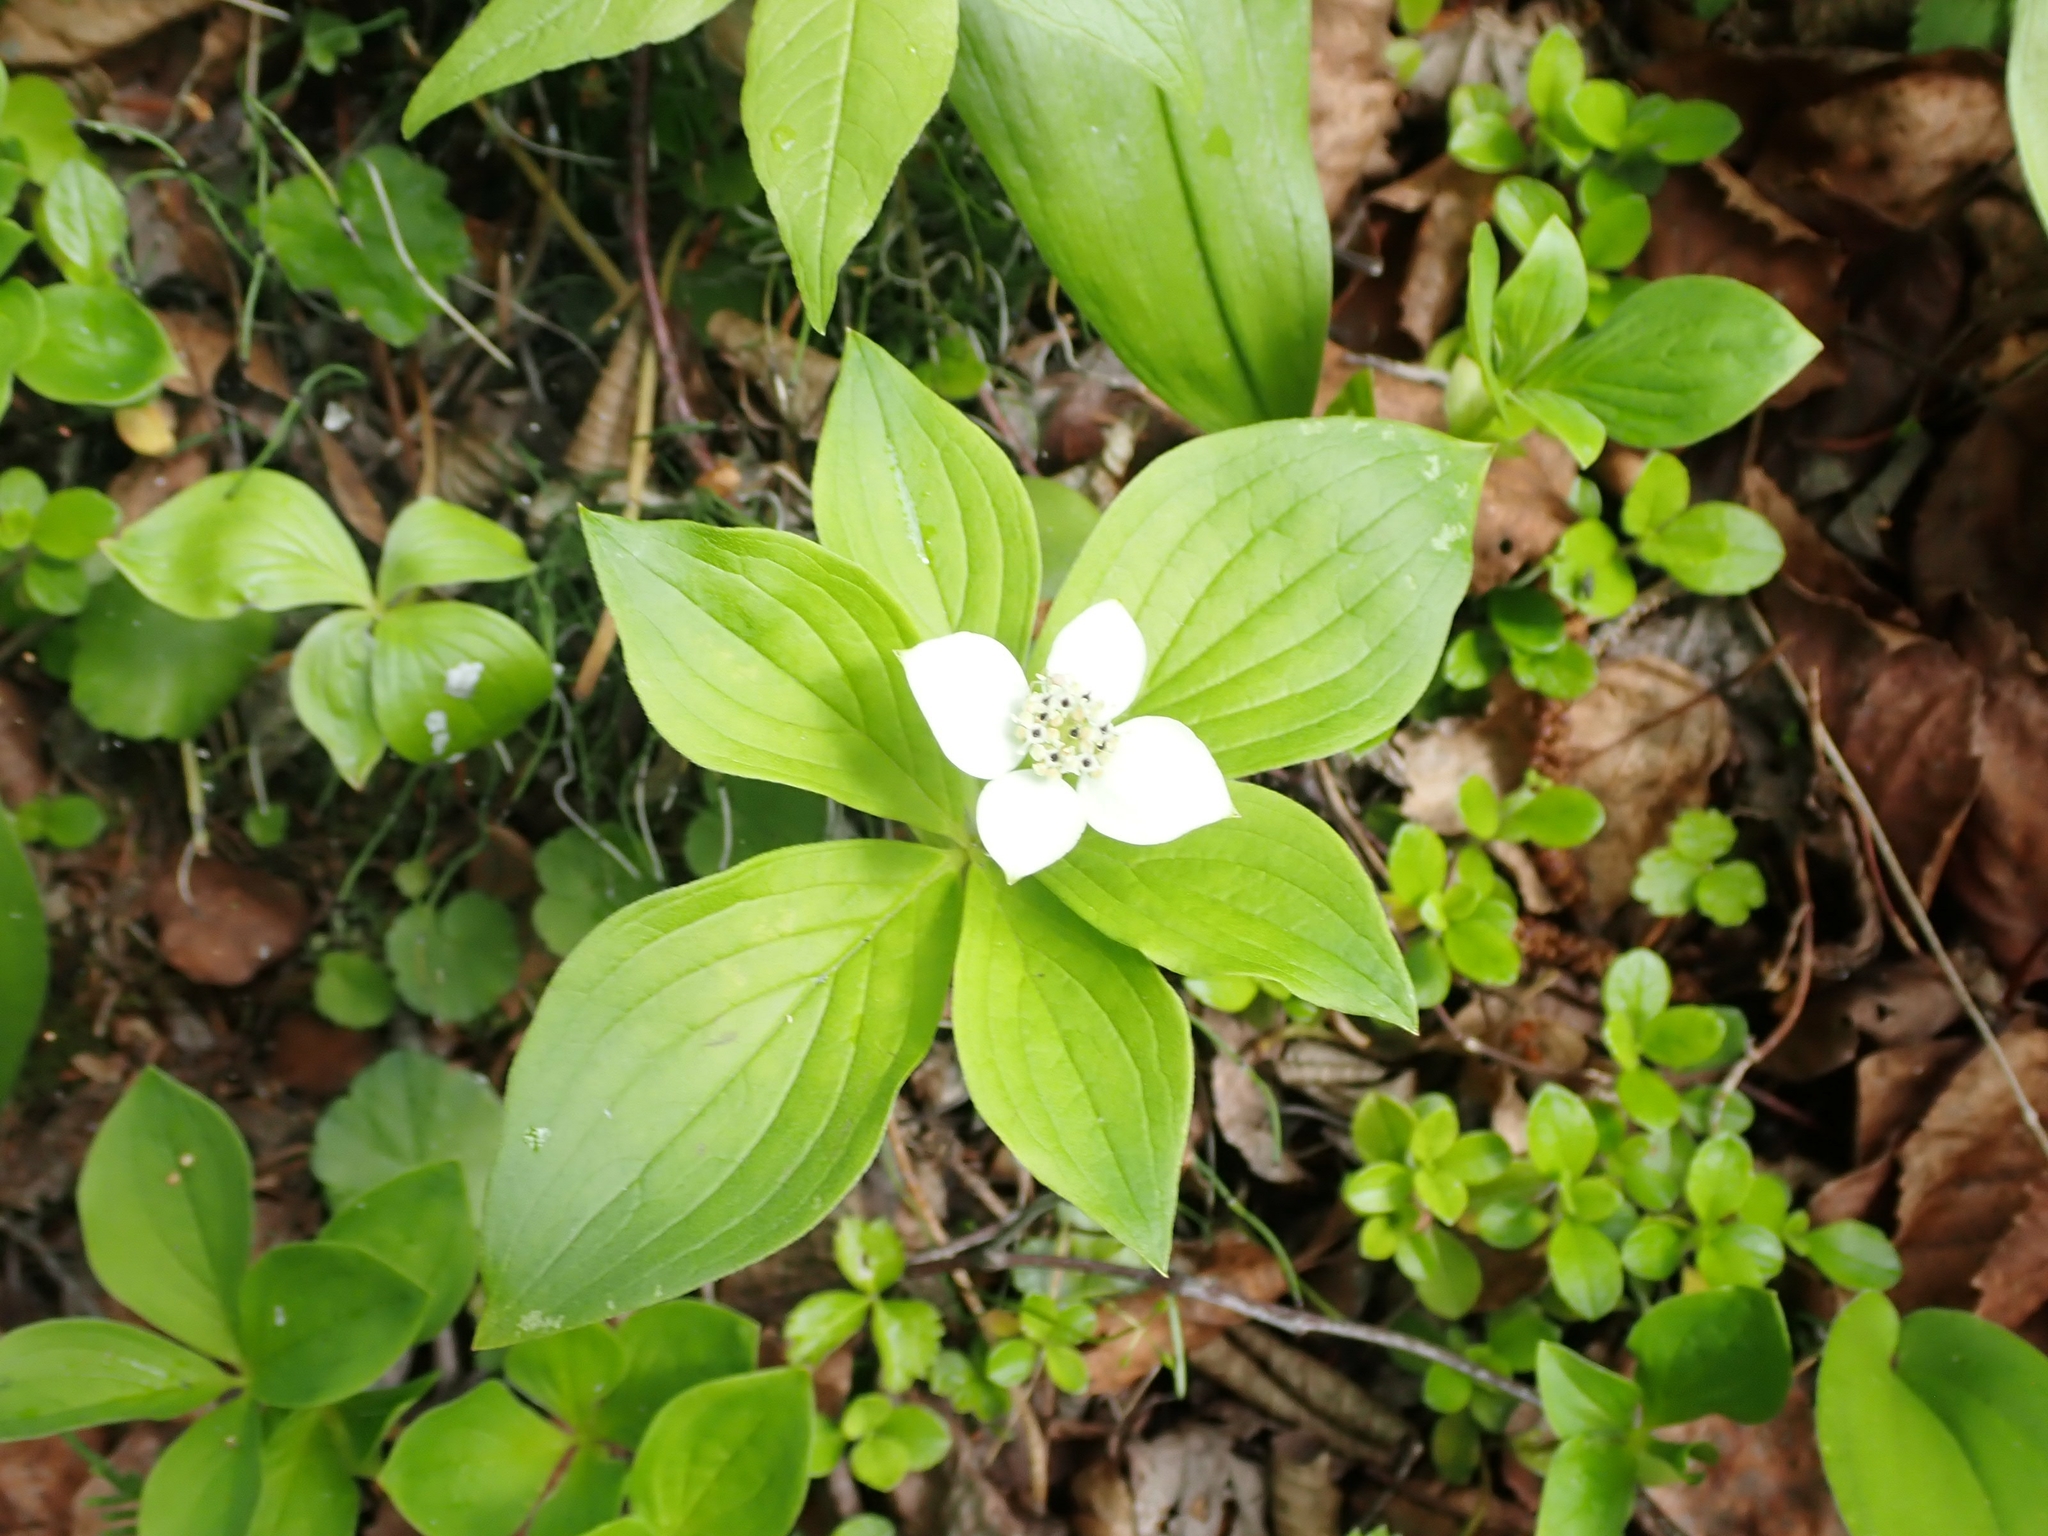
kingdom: Plantae
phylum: Tracheophyta
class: Magnoliopsida
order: Cornales
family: Cornaceae
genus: Cornus
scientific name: Cornus canadensis
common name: Creeping dogwood
